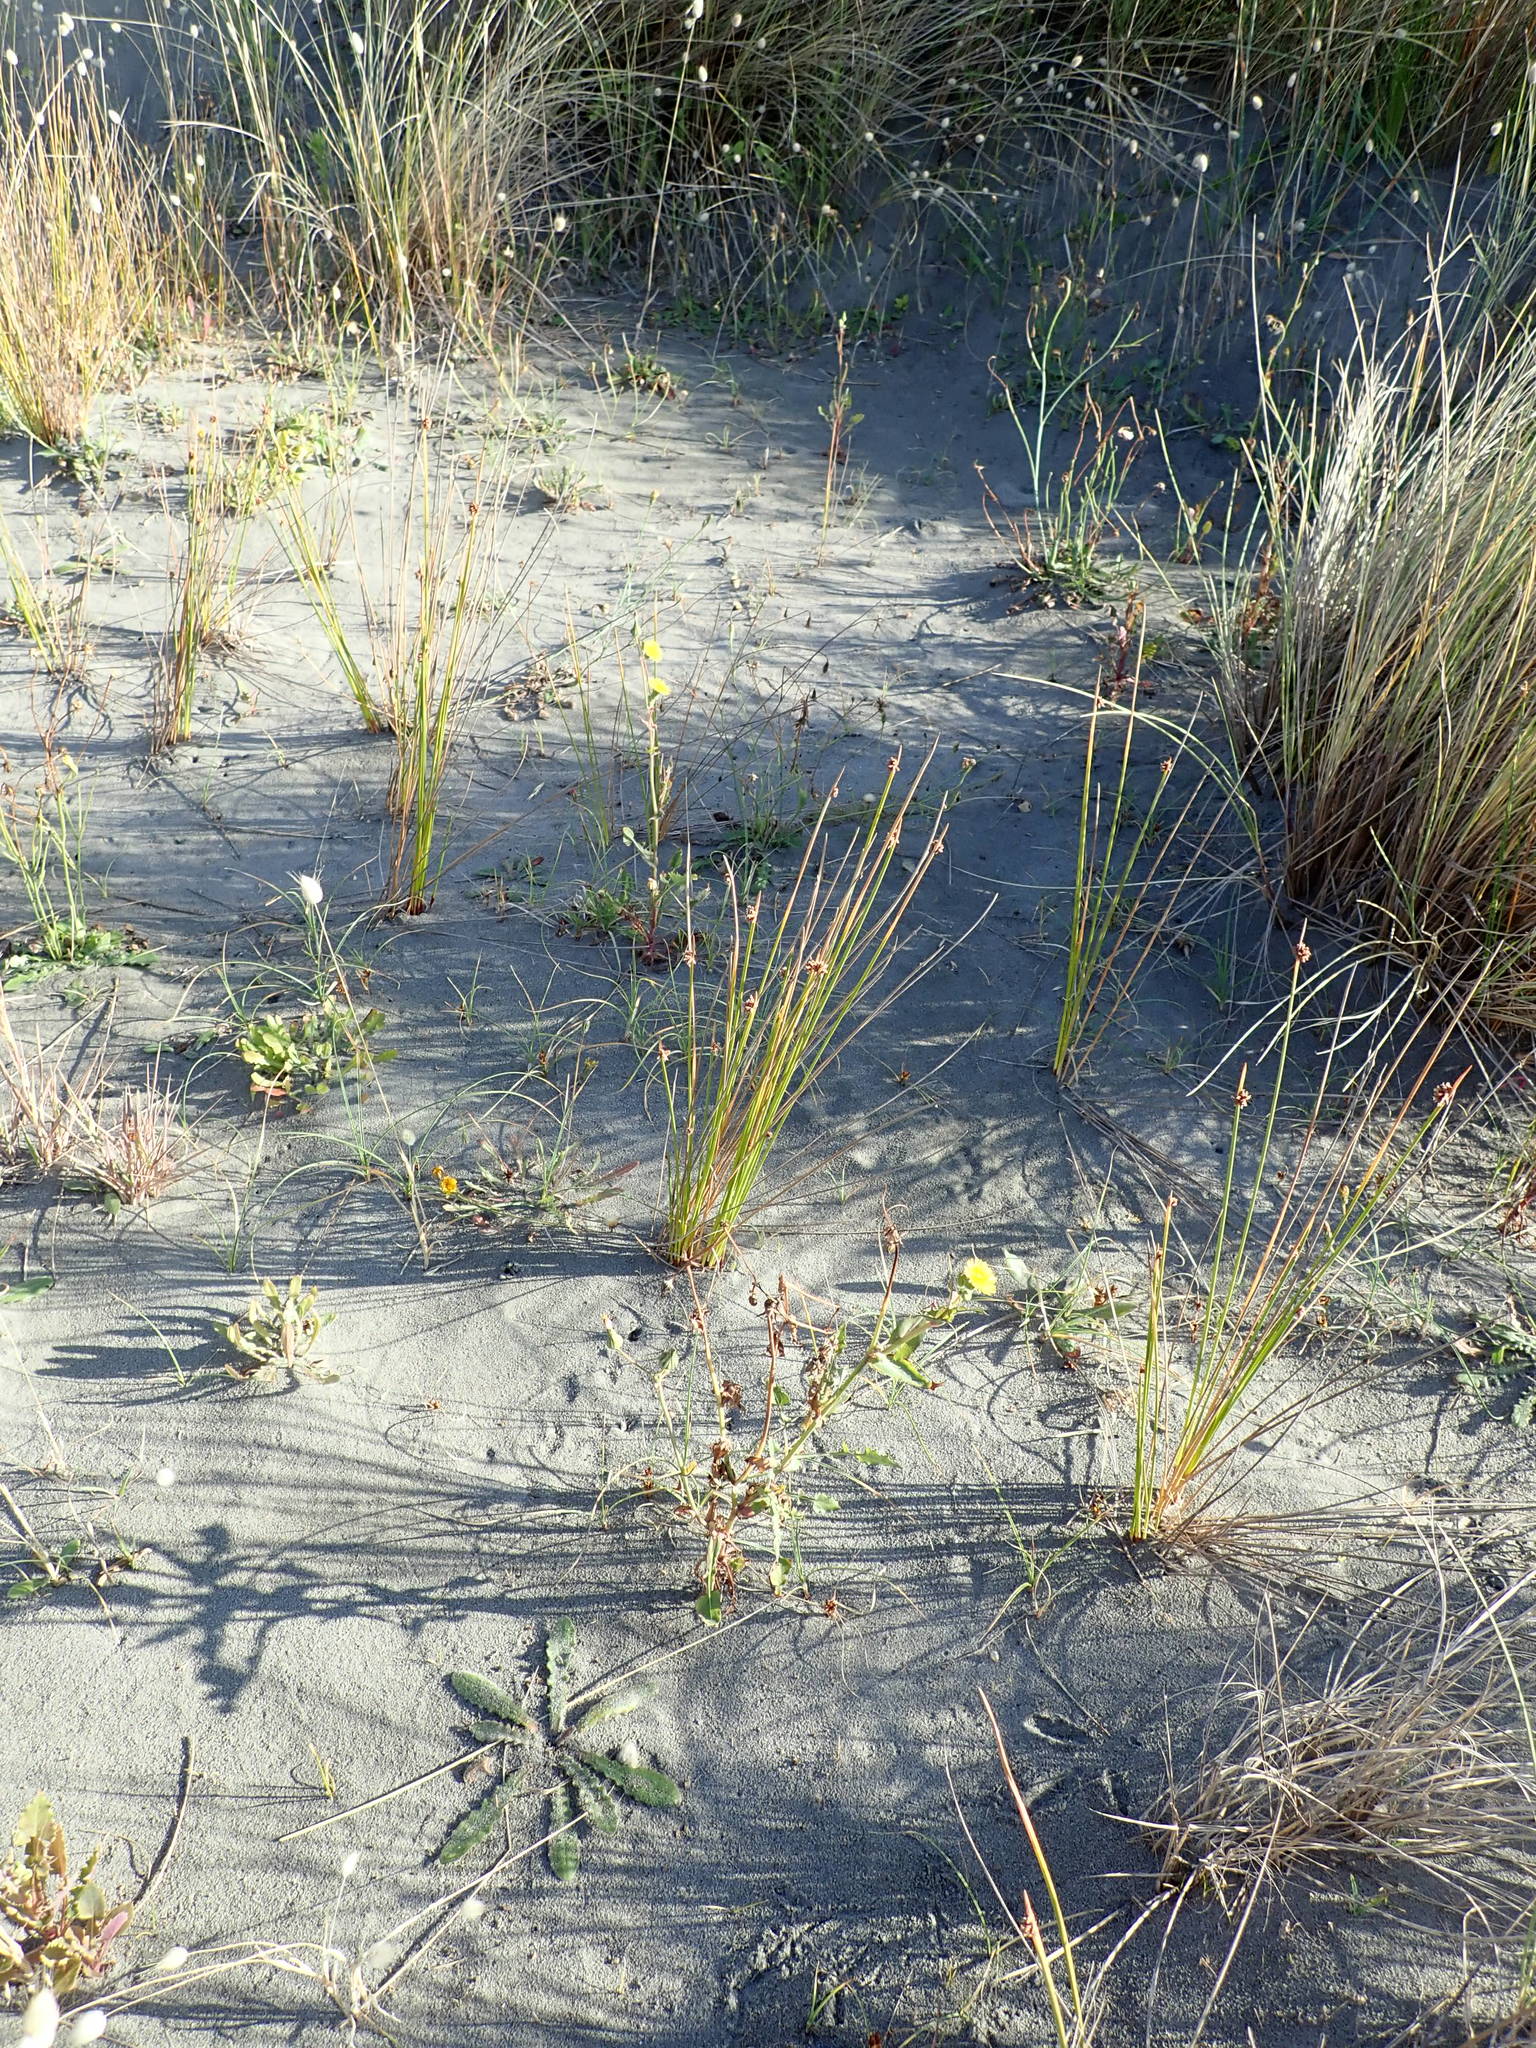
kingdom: Plantae
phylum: Tracheophyta
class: Magnoliopsida
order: Asterales
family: Asteraceae
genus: Sonchus
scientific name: Sonchus oleraceus
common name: Common sowthistle
